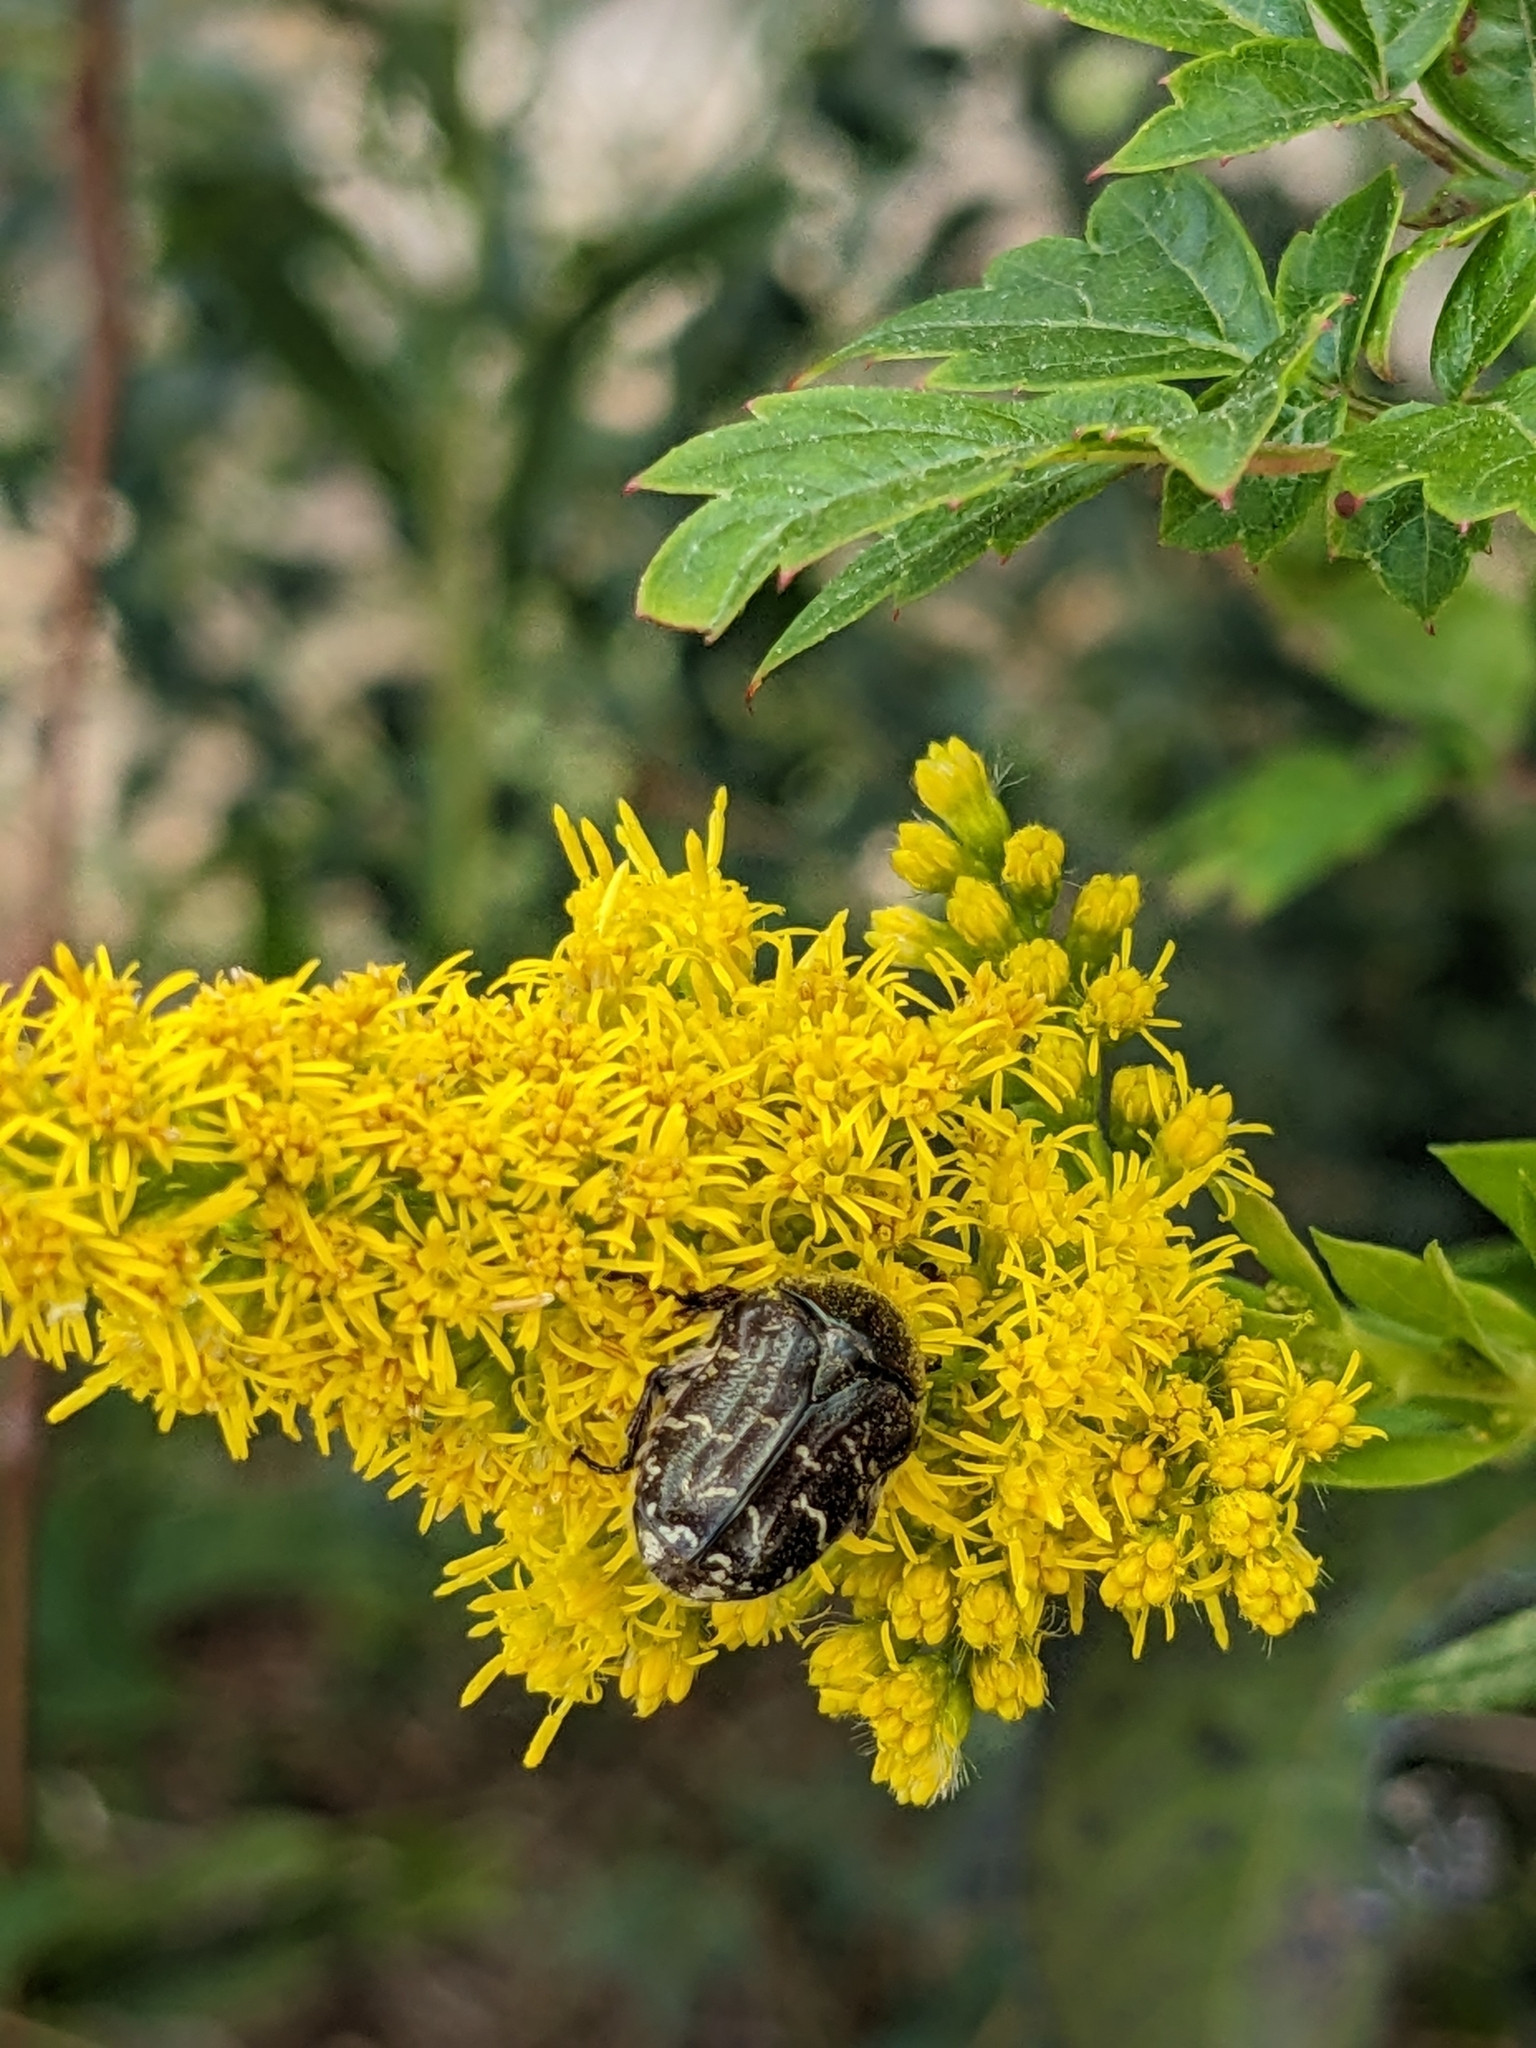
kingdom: Animalia
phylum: Arthropoda
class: Insecta
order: Coleoptera
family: Scarabaeidae
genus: Euphoria
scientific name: Euphoria sepulcralis
